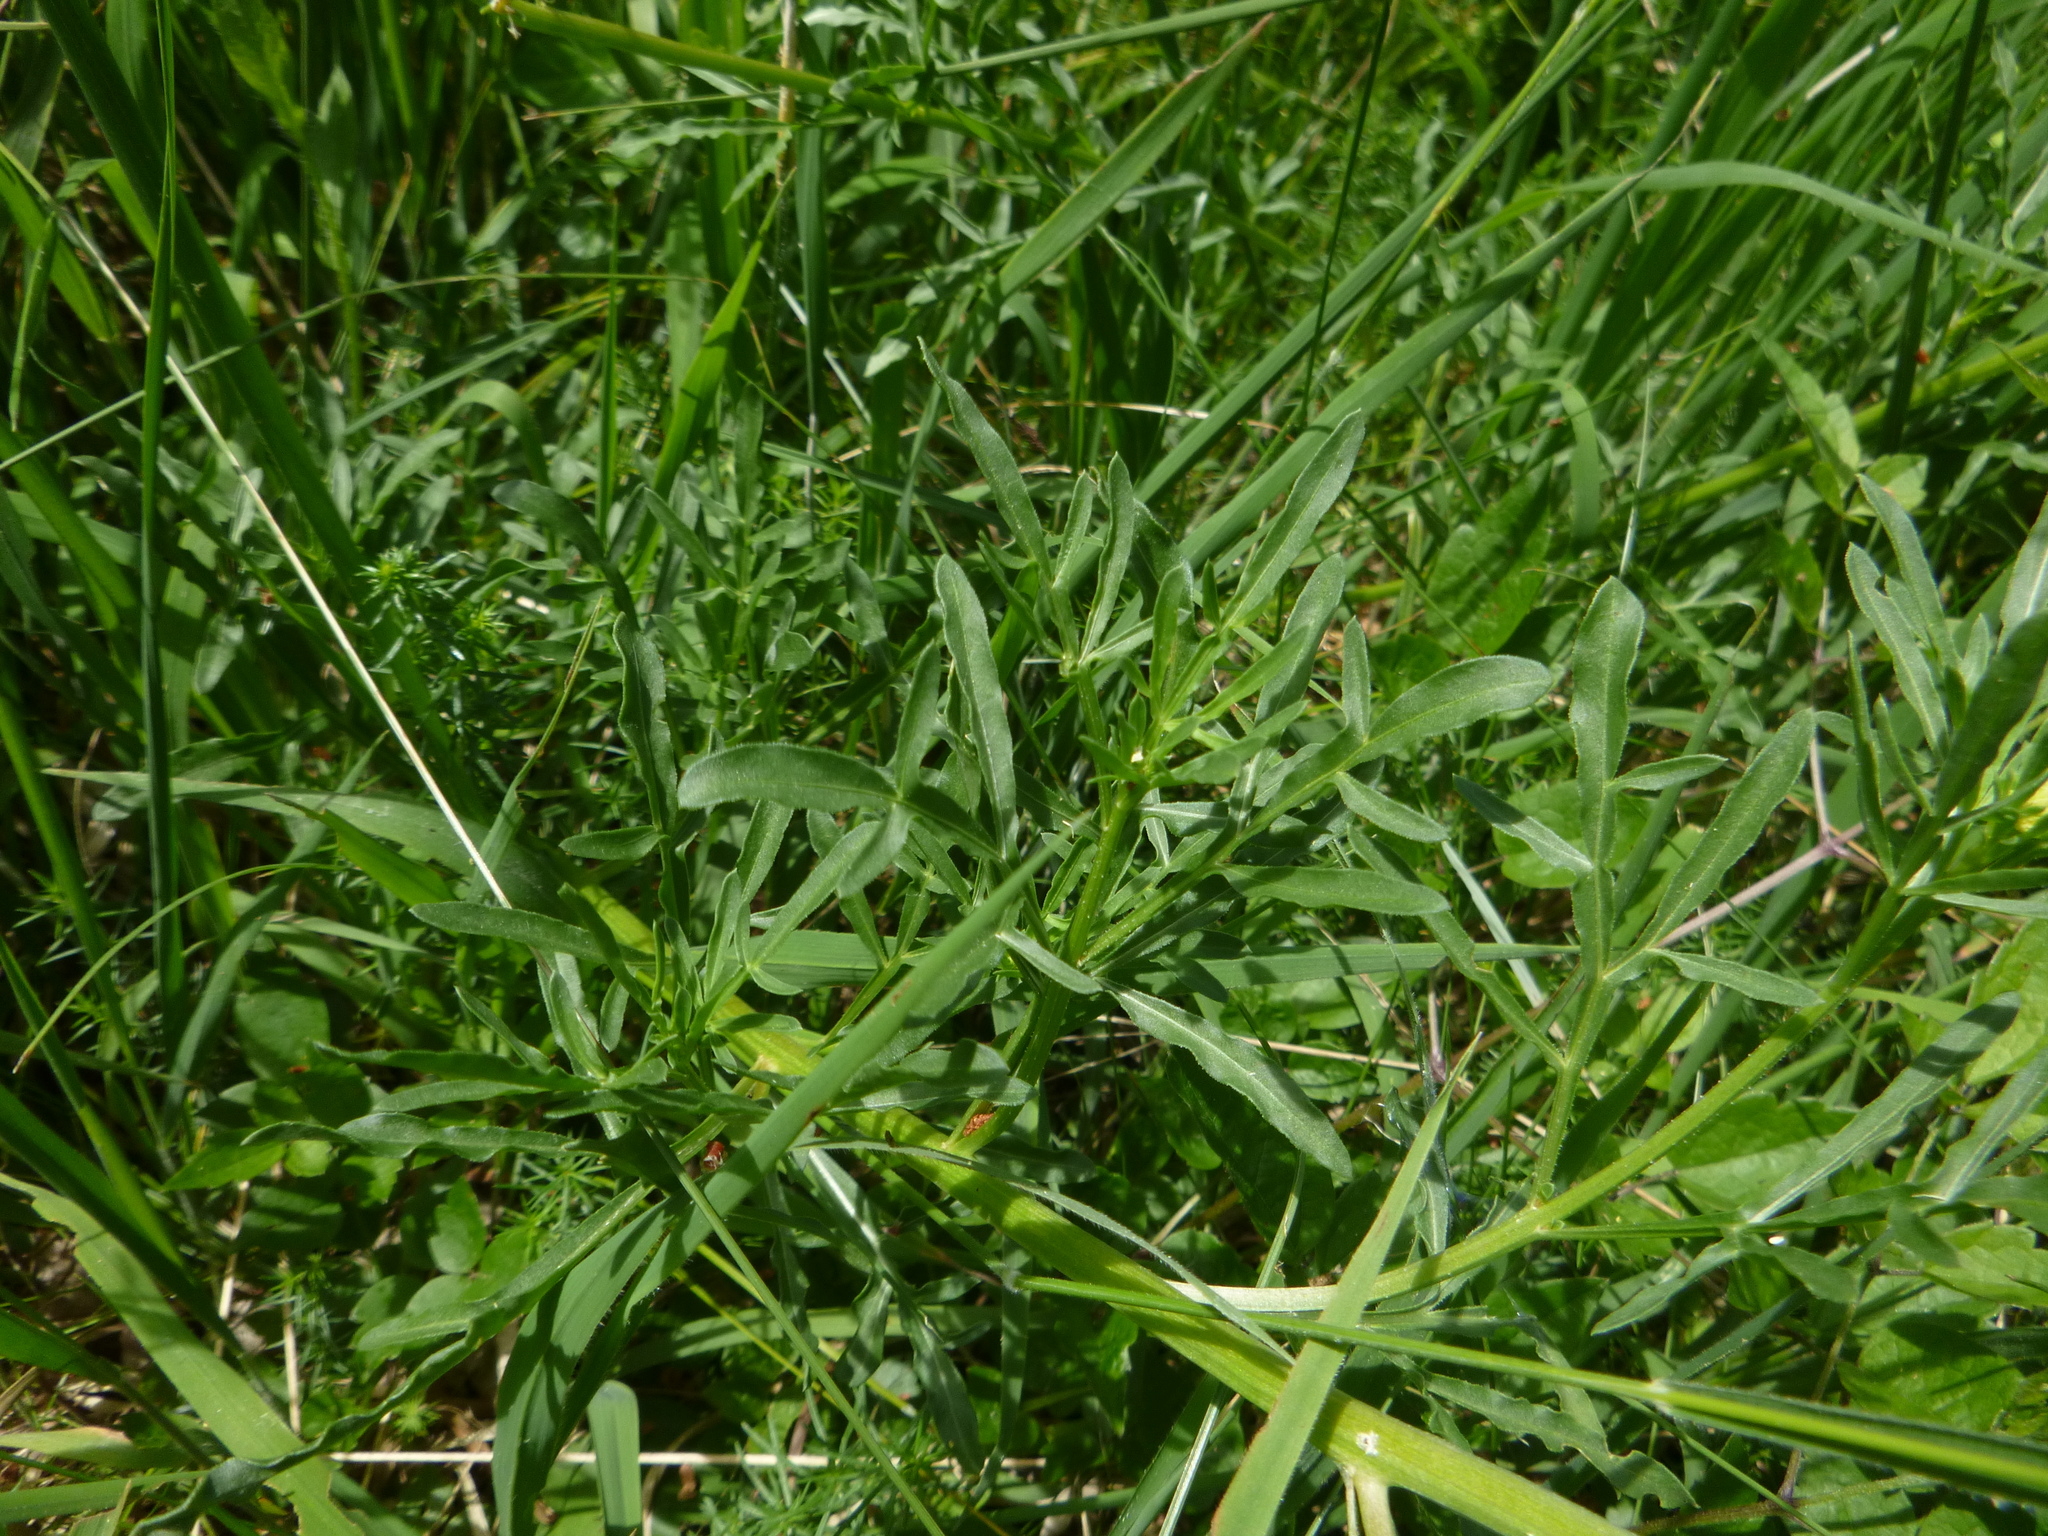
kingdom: Plantae
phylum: Tracheophyta
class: Magnoliopsida
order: Brassicales
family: Resedaceae
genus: Reseda
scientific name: Reseda lutea
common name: Wild mignonette
